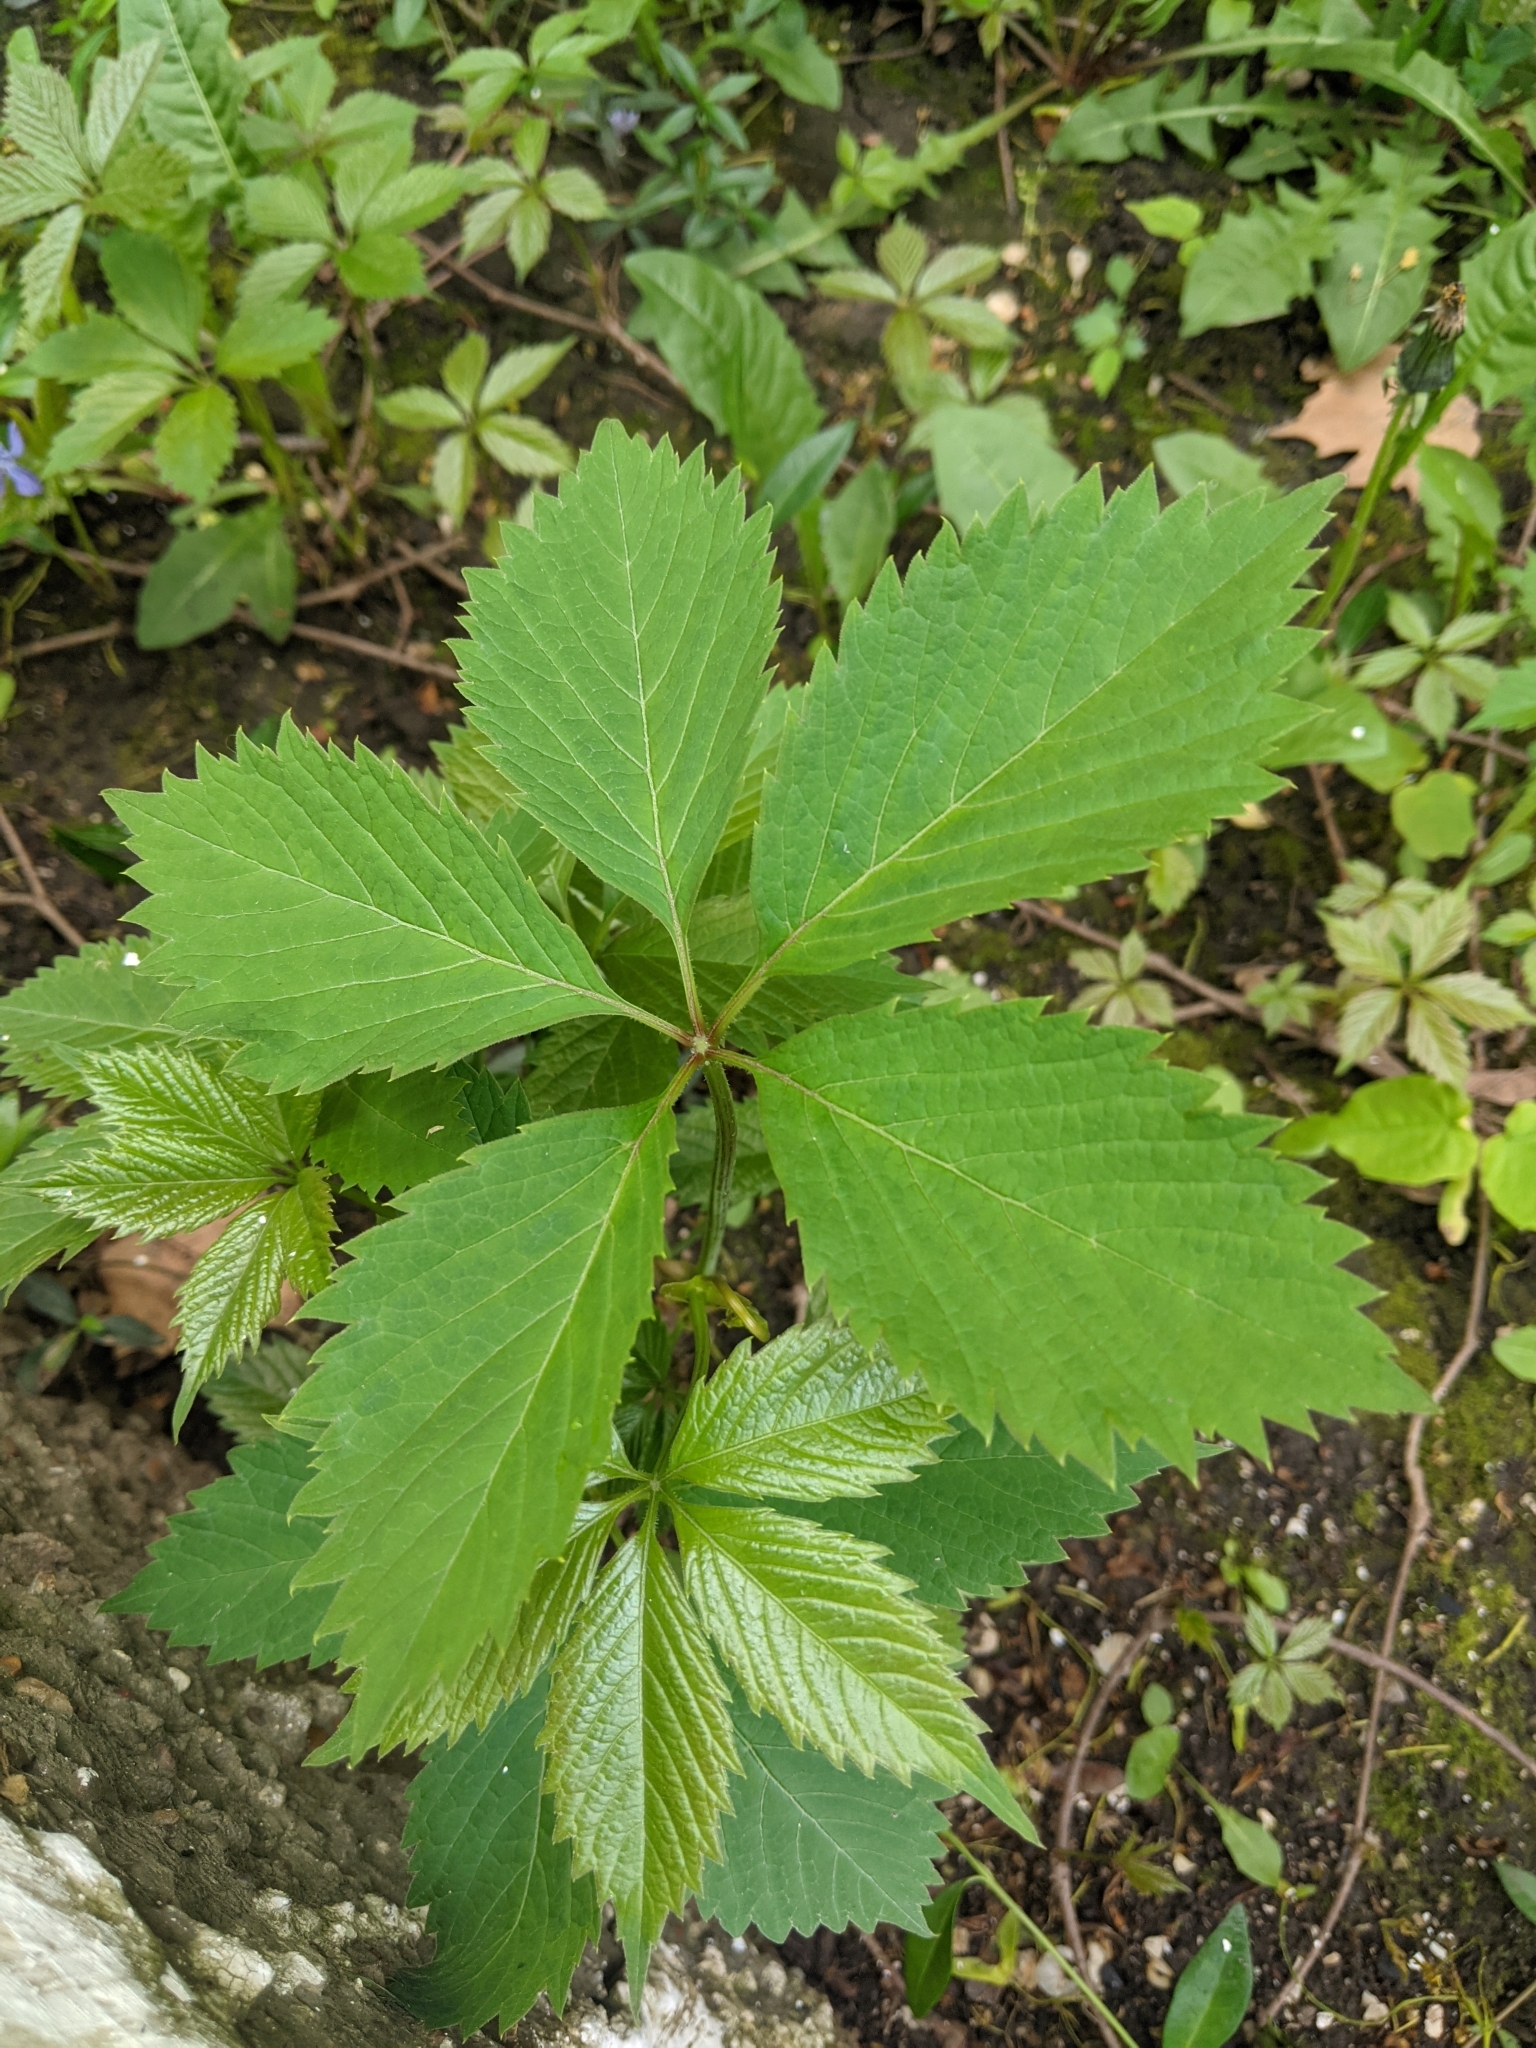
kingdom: Plantae
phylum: Tracheophyta
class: Magnoliopsida
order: Vitales
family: Vitaceae
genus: Parthenocissus
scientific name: Parthenocissus inserta
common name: False virginia-creeper
